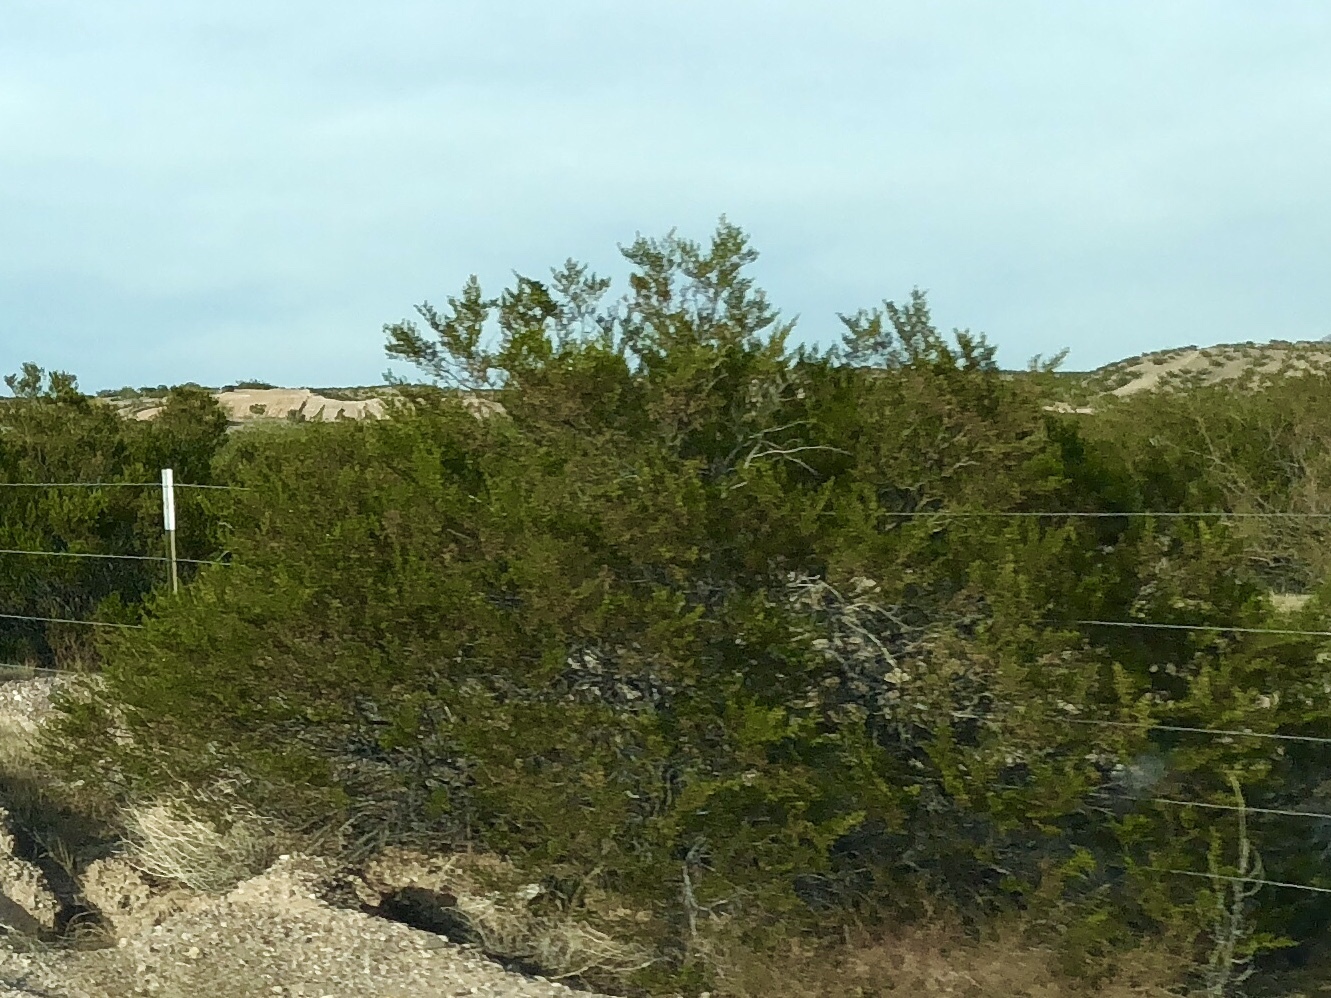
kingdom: Plantae
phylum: Tracheophyta
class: Magnoliopsida
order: Zygophyllales
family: Zygophyllaceae
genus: Larrea
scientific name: Larrea tridentata
